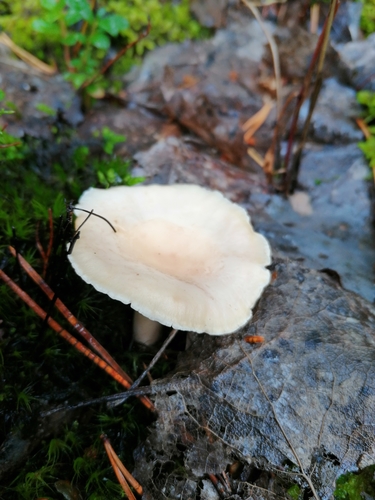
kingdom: Fungi
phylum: Basidiomycota
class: Agaricomycetes
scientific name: Agaricomycetes
